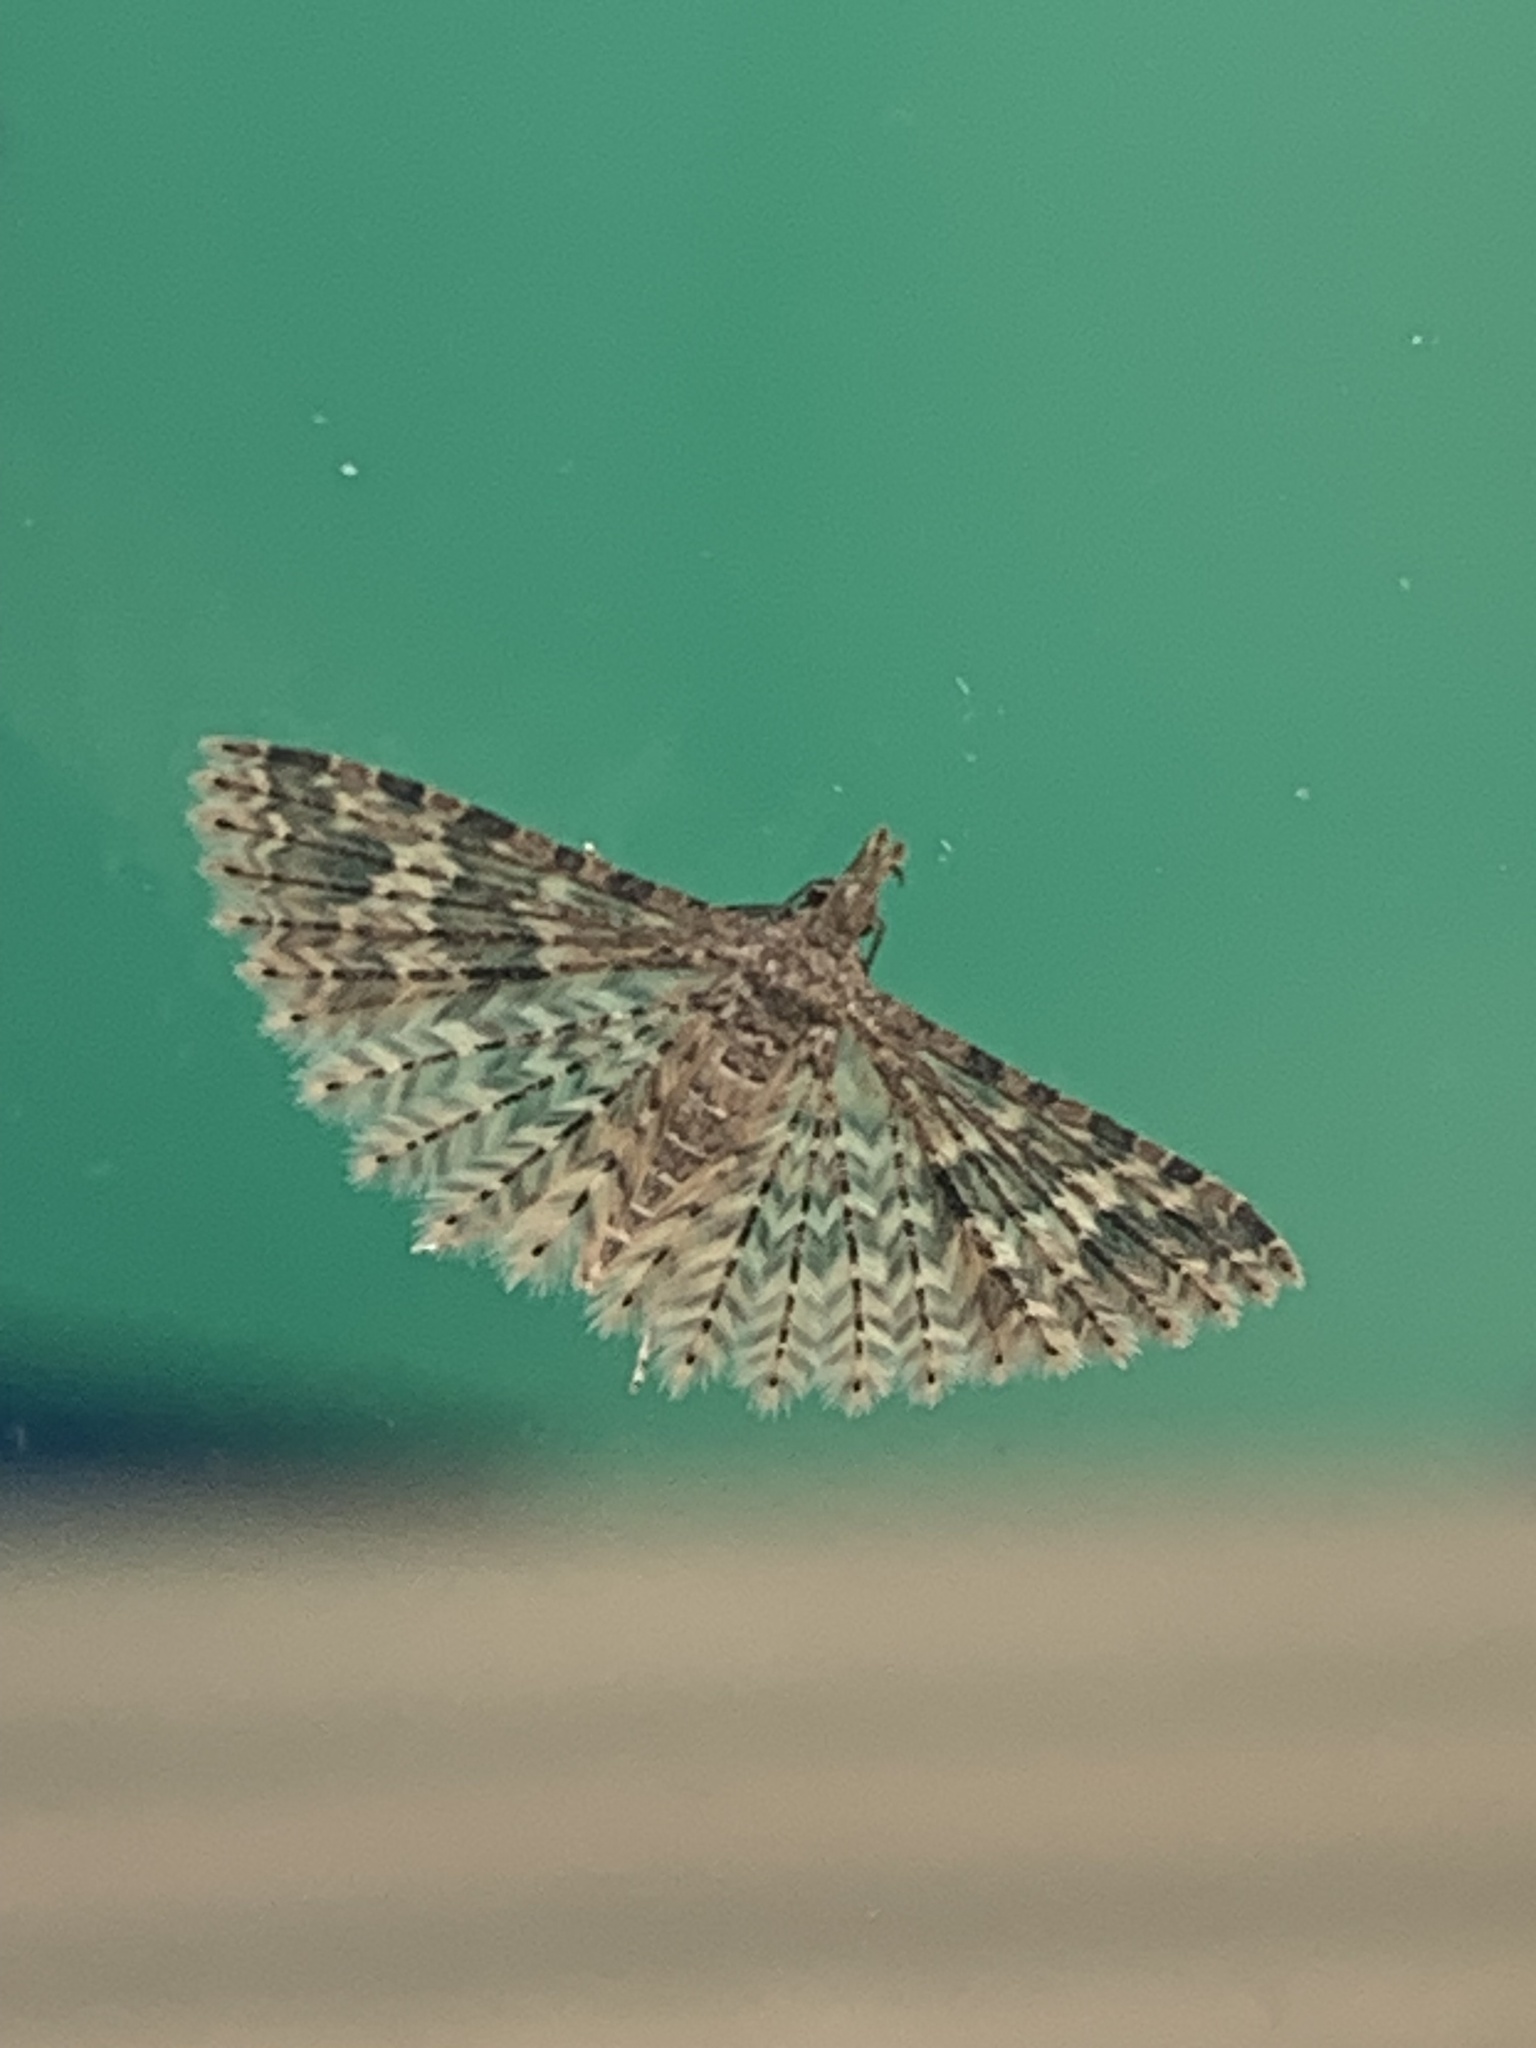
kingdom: Animalia
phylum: Arthropoda
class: Insecta
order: Lepidoptera
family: Alucitidae
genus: Alucita
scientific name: Alucita hexadactyla
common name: Twenty-plume moth
